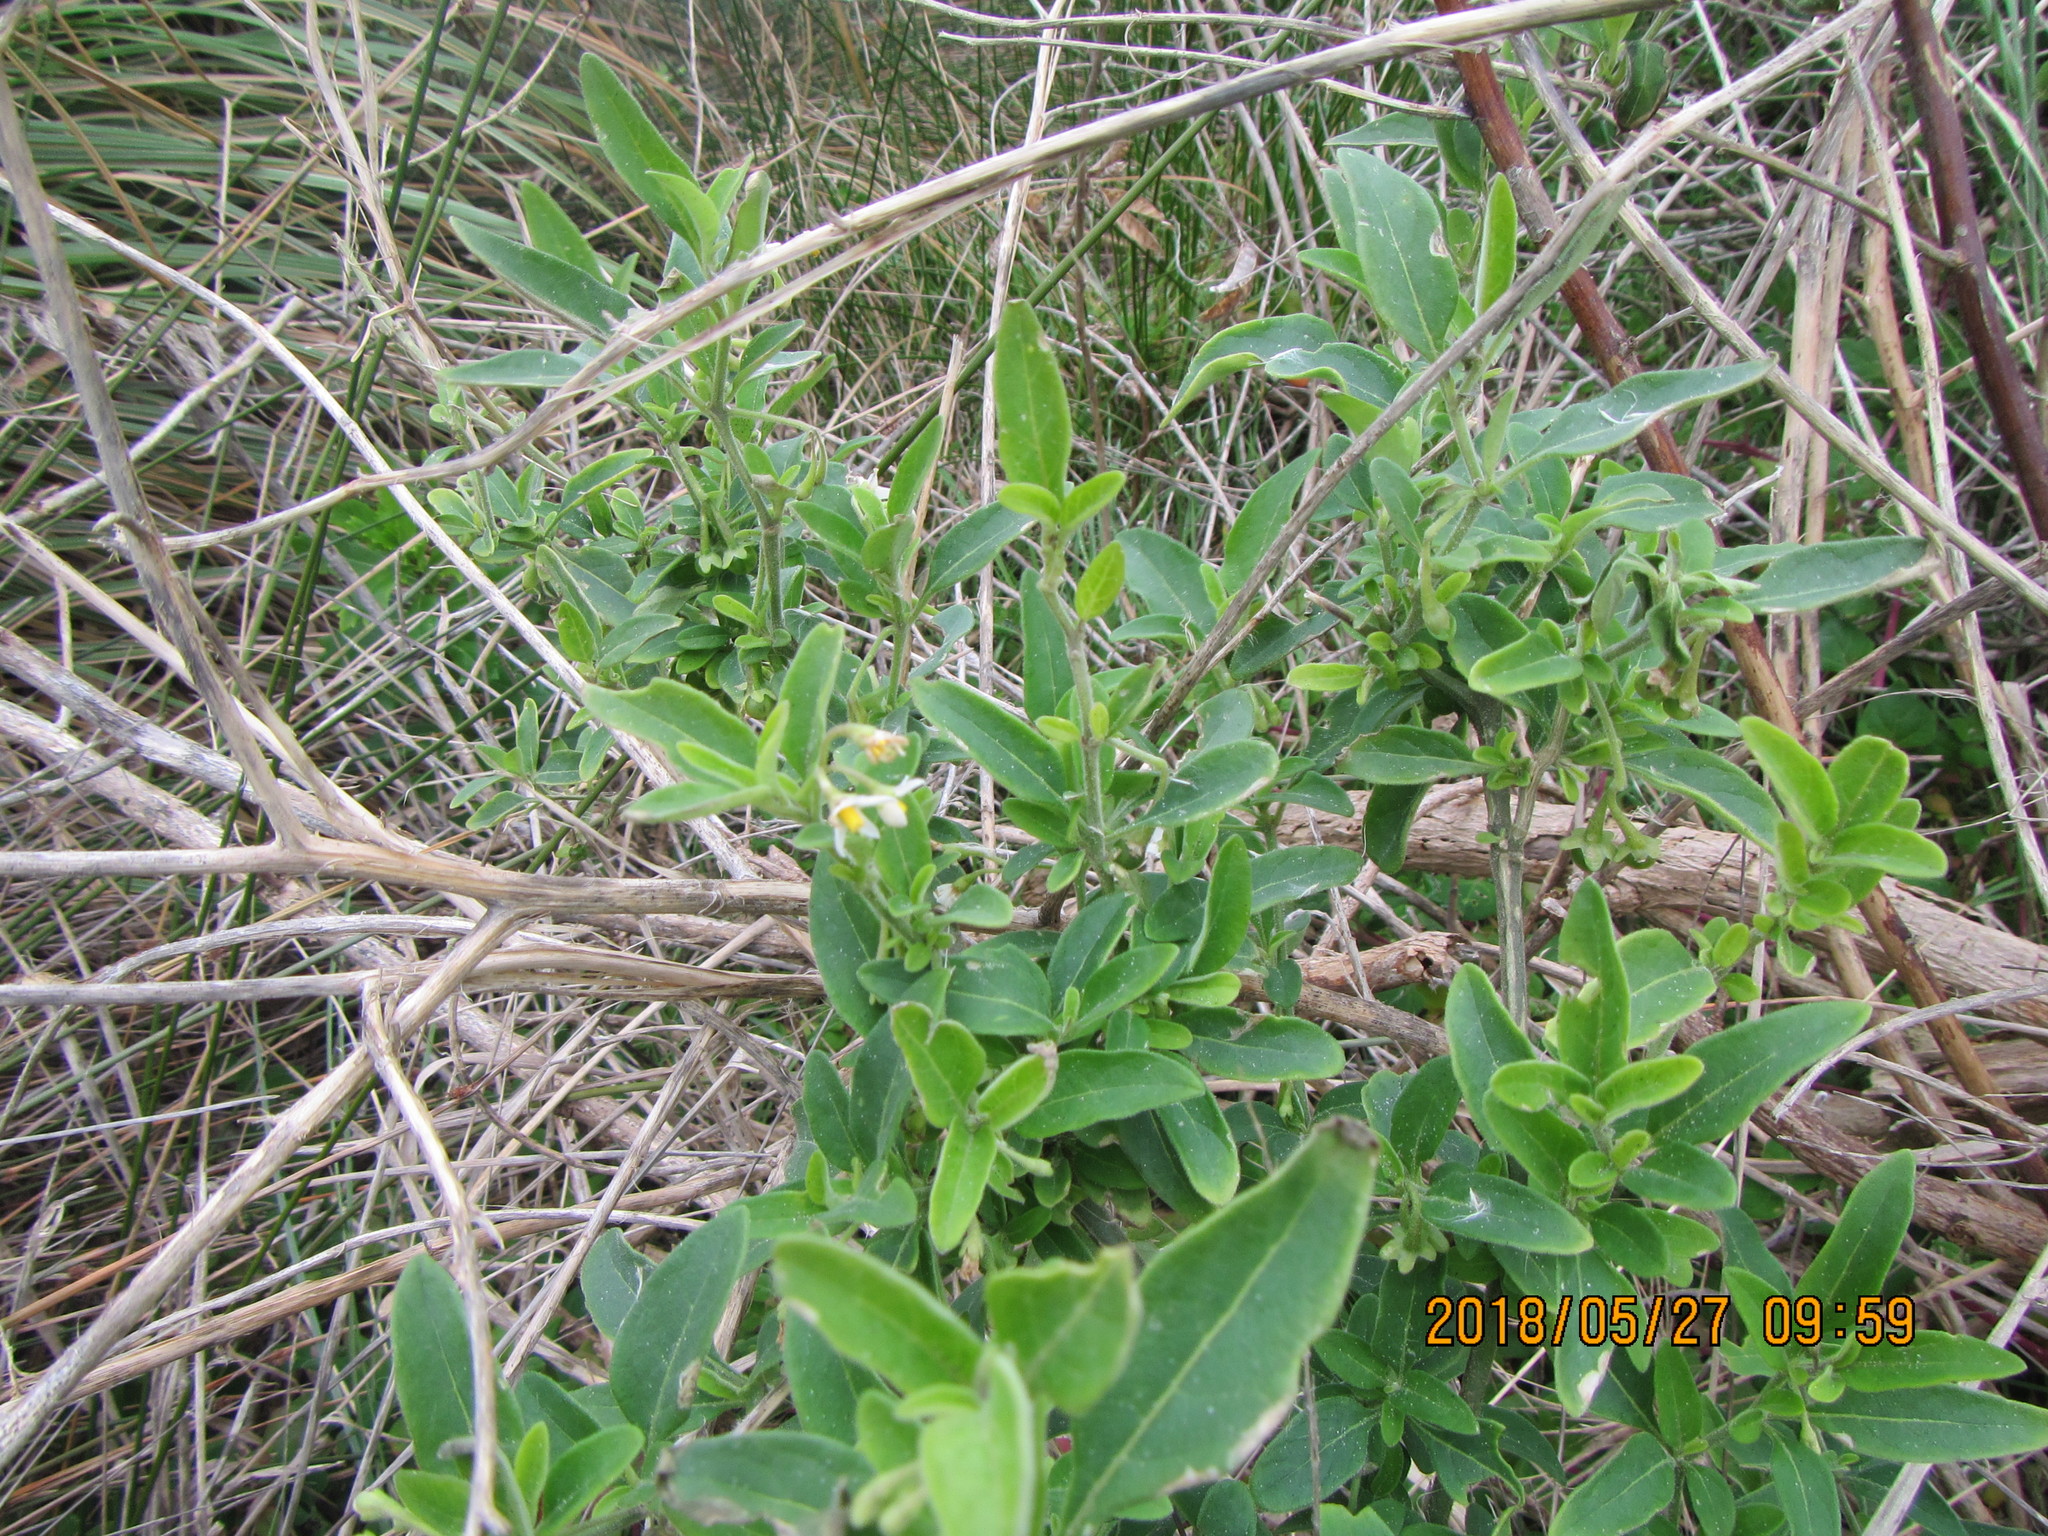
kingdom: Plantae
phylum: Tracheophyta
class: Magnoliopsida
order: Solanales
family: Solanaceae
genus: Solanum
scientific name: Solanum chenopodioides
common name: Tall nightshade
